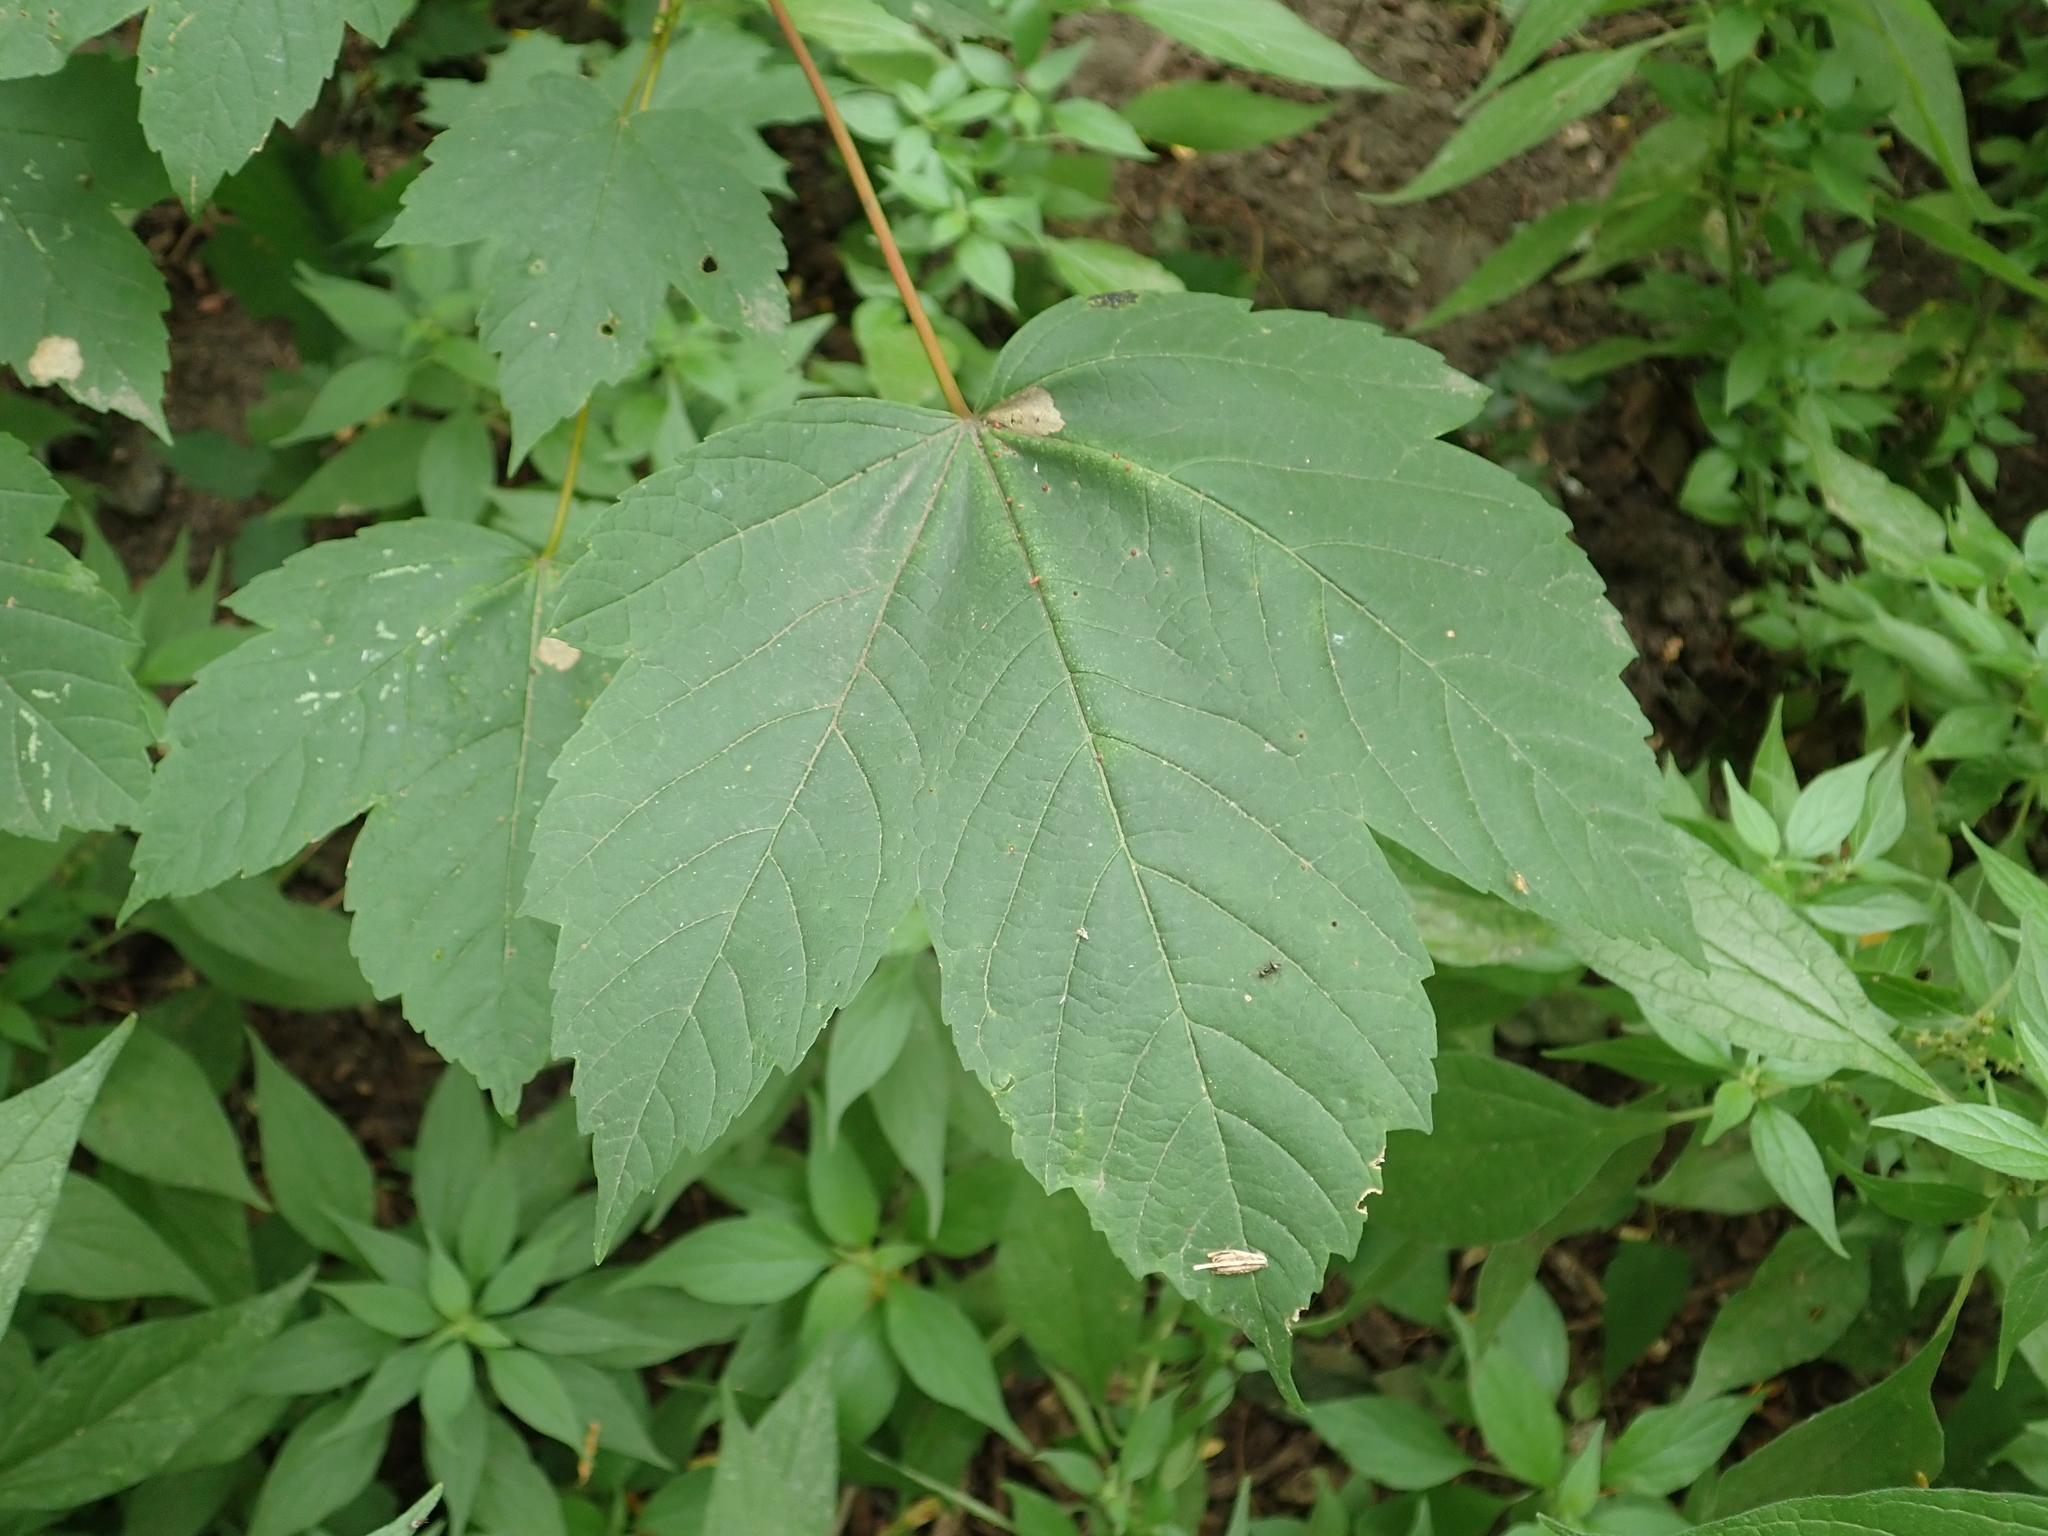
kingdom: Plantae
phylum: Tracheophyta
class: Magnoliopsida
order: Sapindales
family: Sapindaceae
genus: Acer
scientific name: Acer pseudoplatanus
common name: Sycamore
